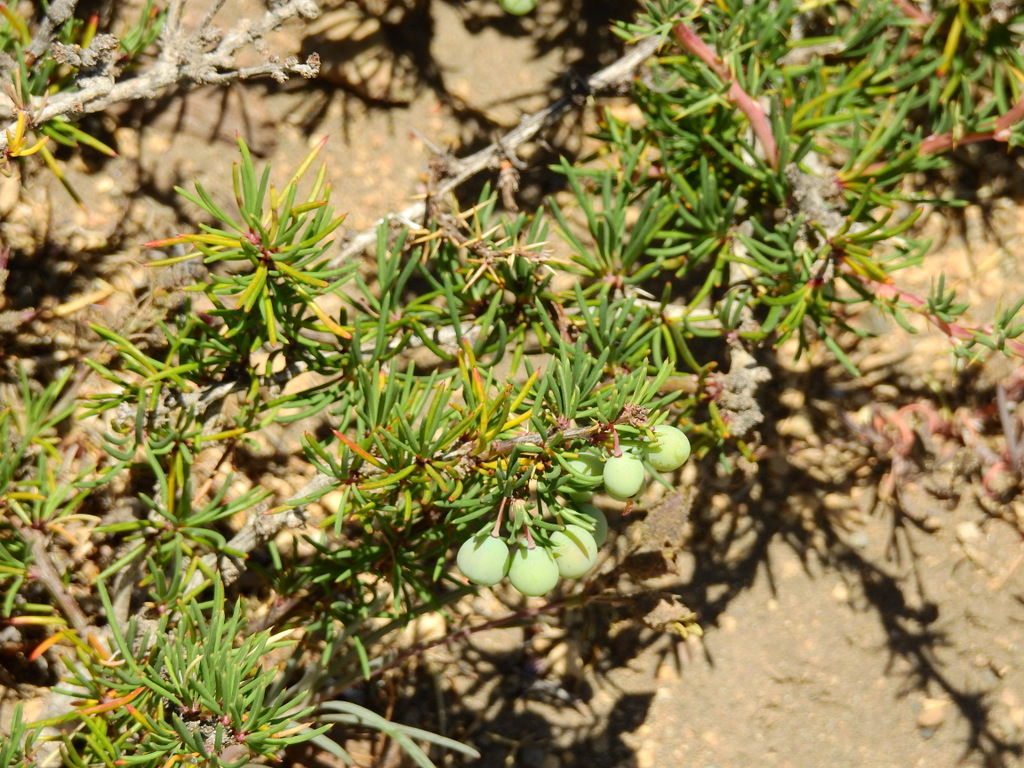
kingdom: Plantae
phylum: Tracheophyta
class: Magnoliopsida
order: Ranunculales
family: Berberidaceae
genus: Berberis
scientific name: Berberis empetrifolia
